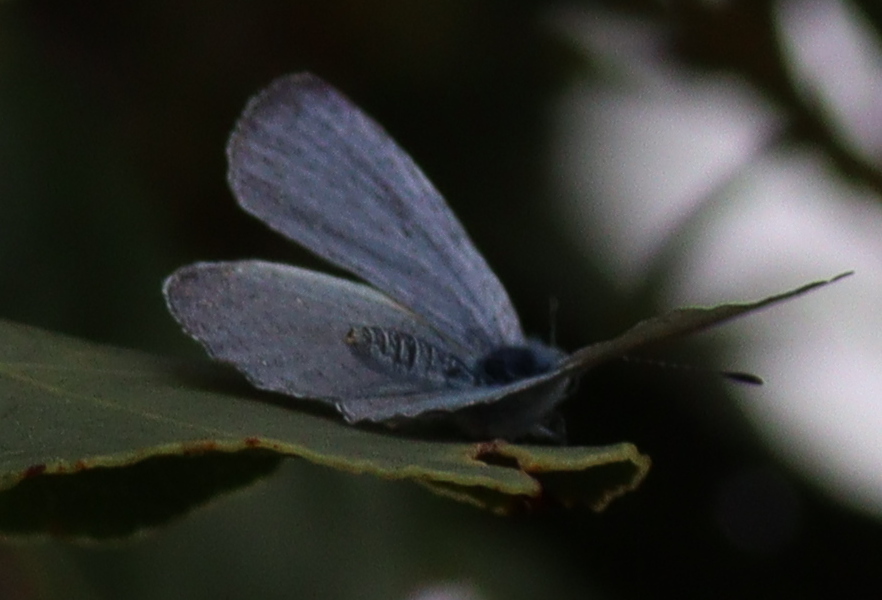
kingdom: Animalia
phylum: Arthropoda
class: Insecta
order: Lepidoptera
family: Lycaenidae
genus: Celastrina
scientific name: Celastrina argiolus
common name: Holly blue
